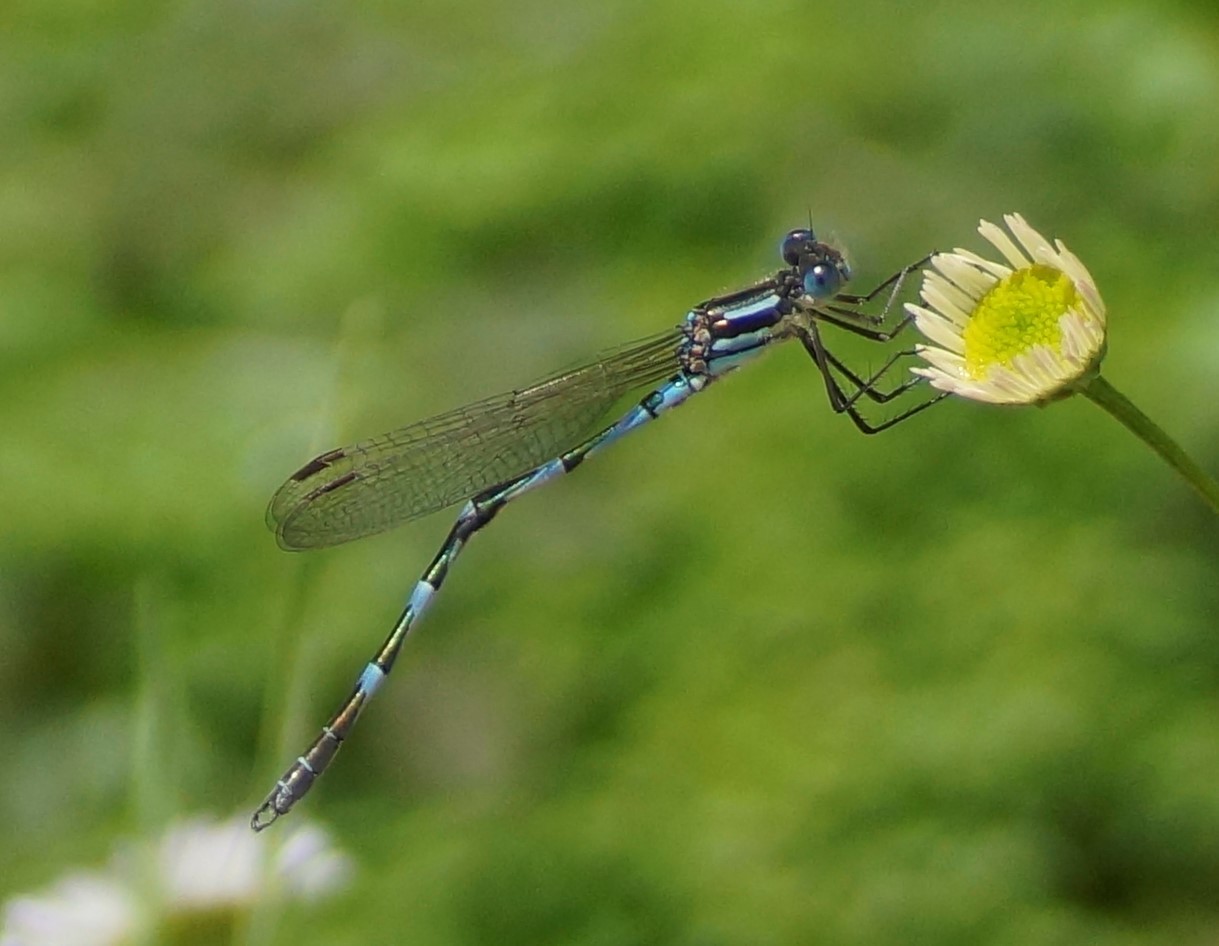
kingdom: Animalia
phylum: Arthropoda
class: Insecta
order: Odonata
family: Lestidae
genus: Austrolestes
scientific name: Austrolestes annulosus
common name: Blue ringtail
